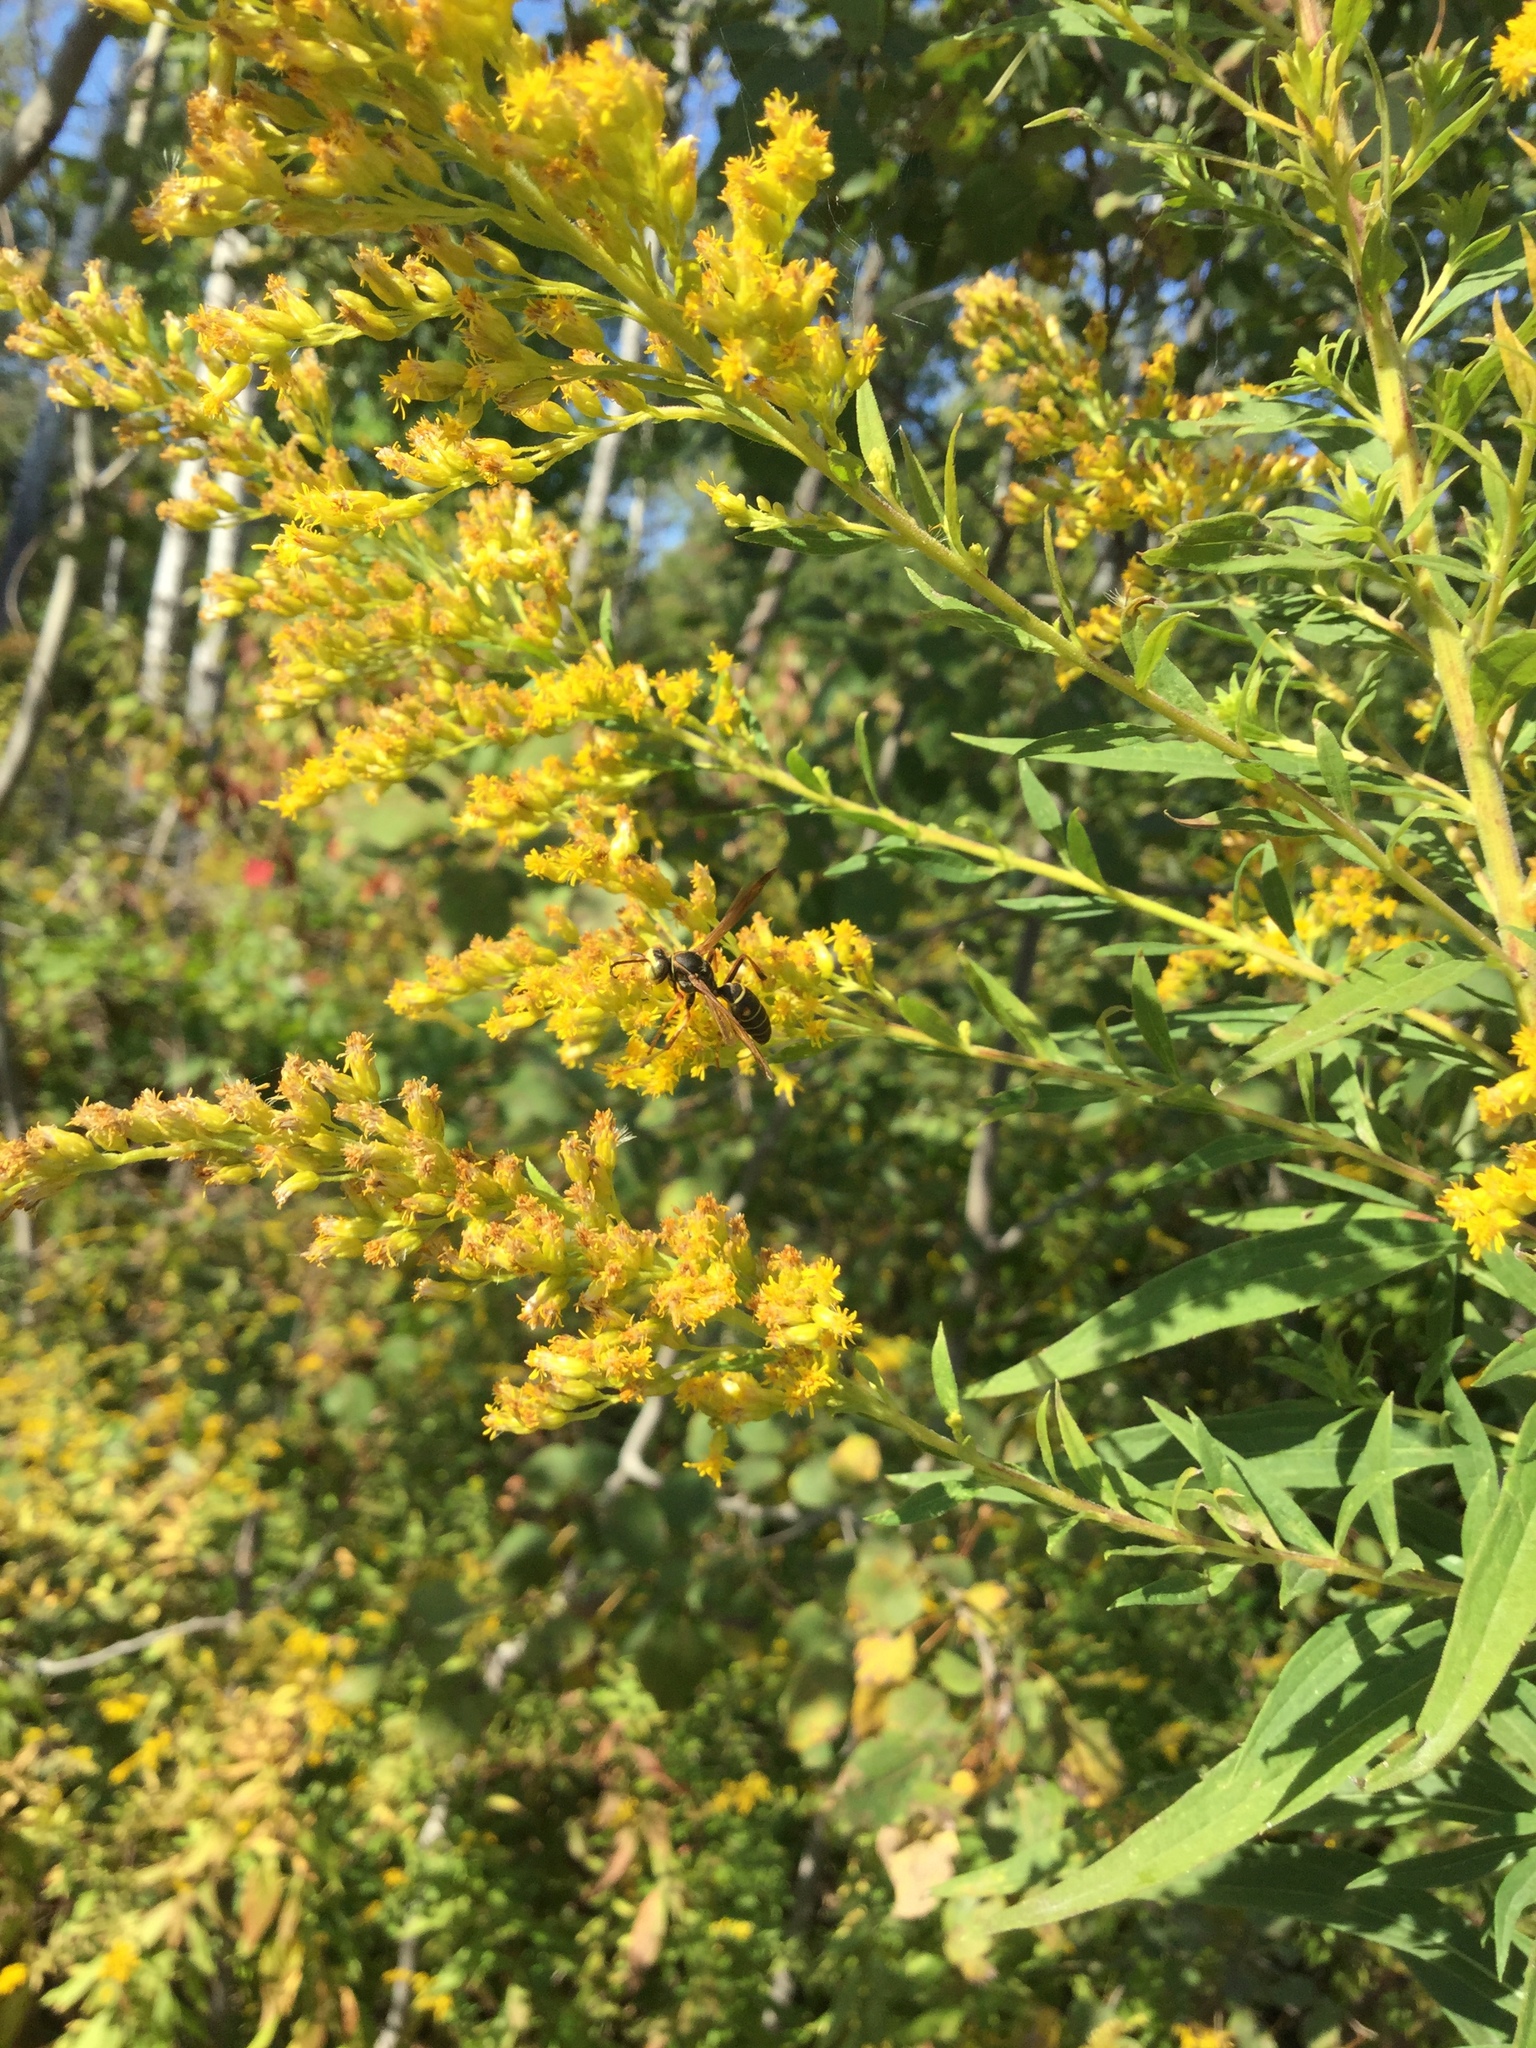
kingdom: Animalia
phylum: Arthropoda
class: Insecta
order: Hymenoptera
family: Eumenidae
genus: Polistes
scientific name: Polistes fuscatus
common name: Dark paper wasp
